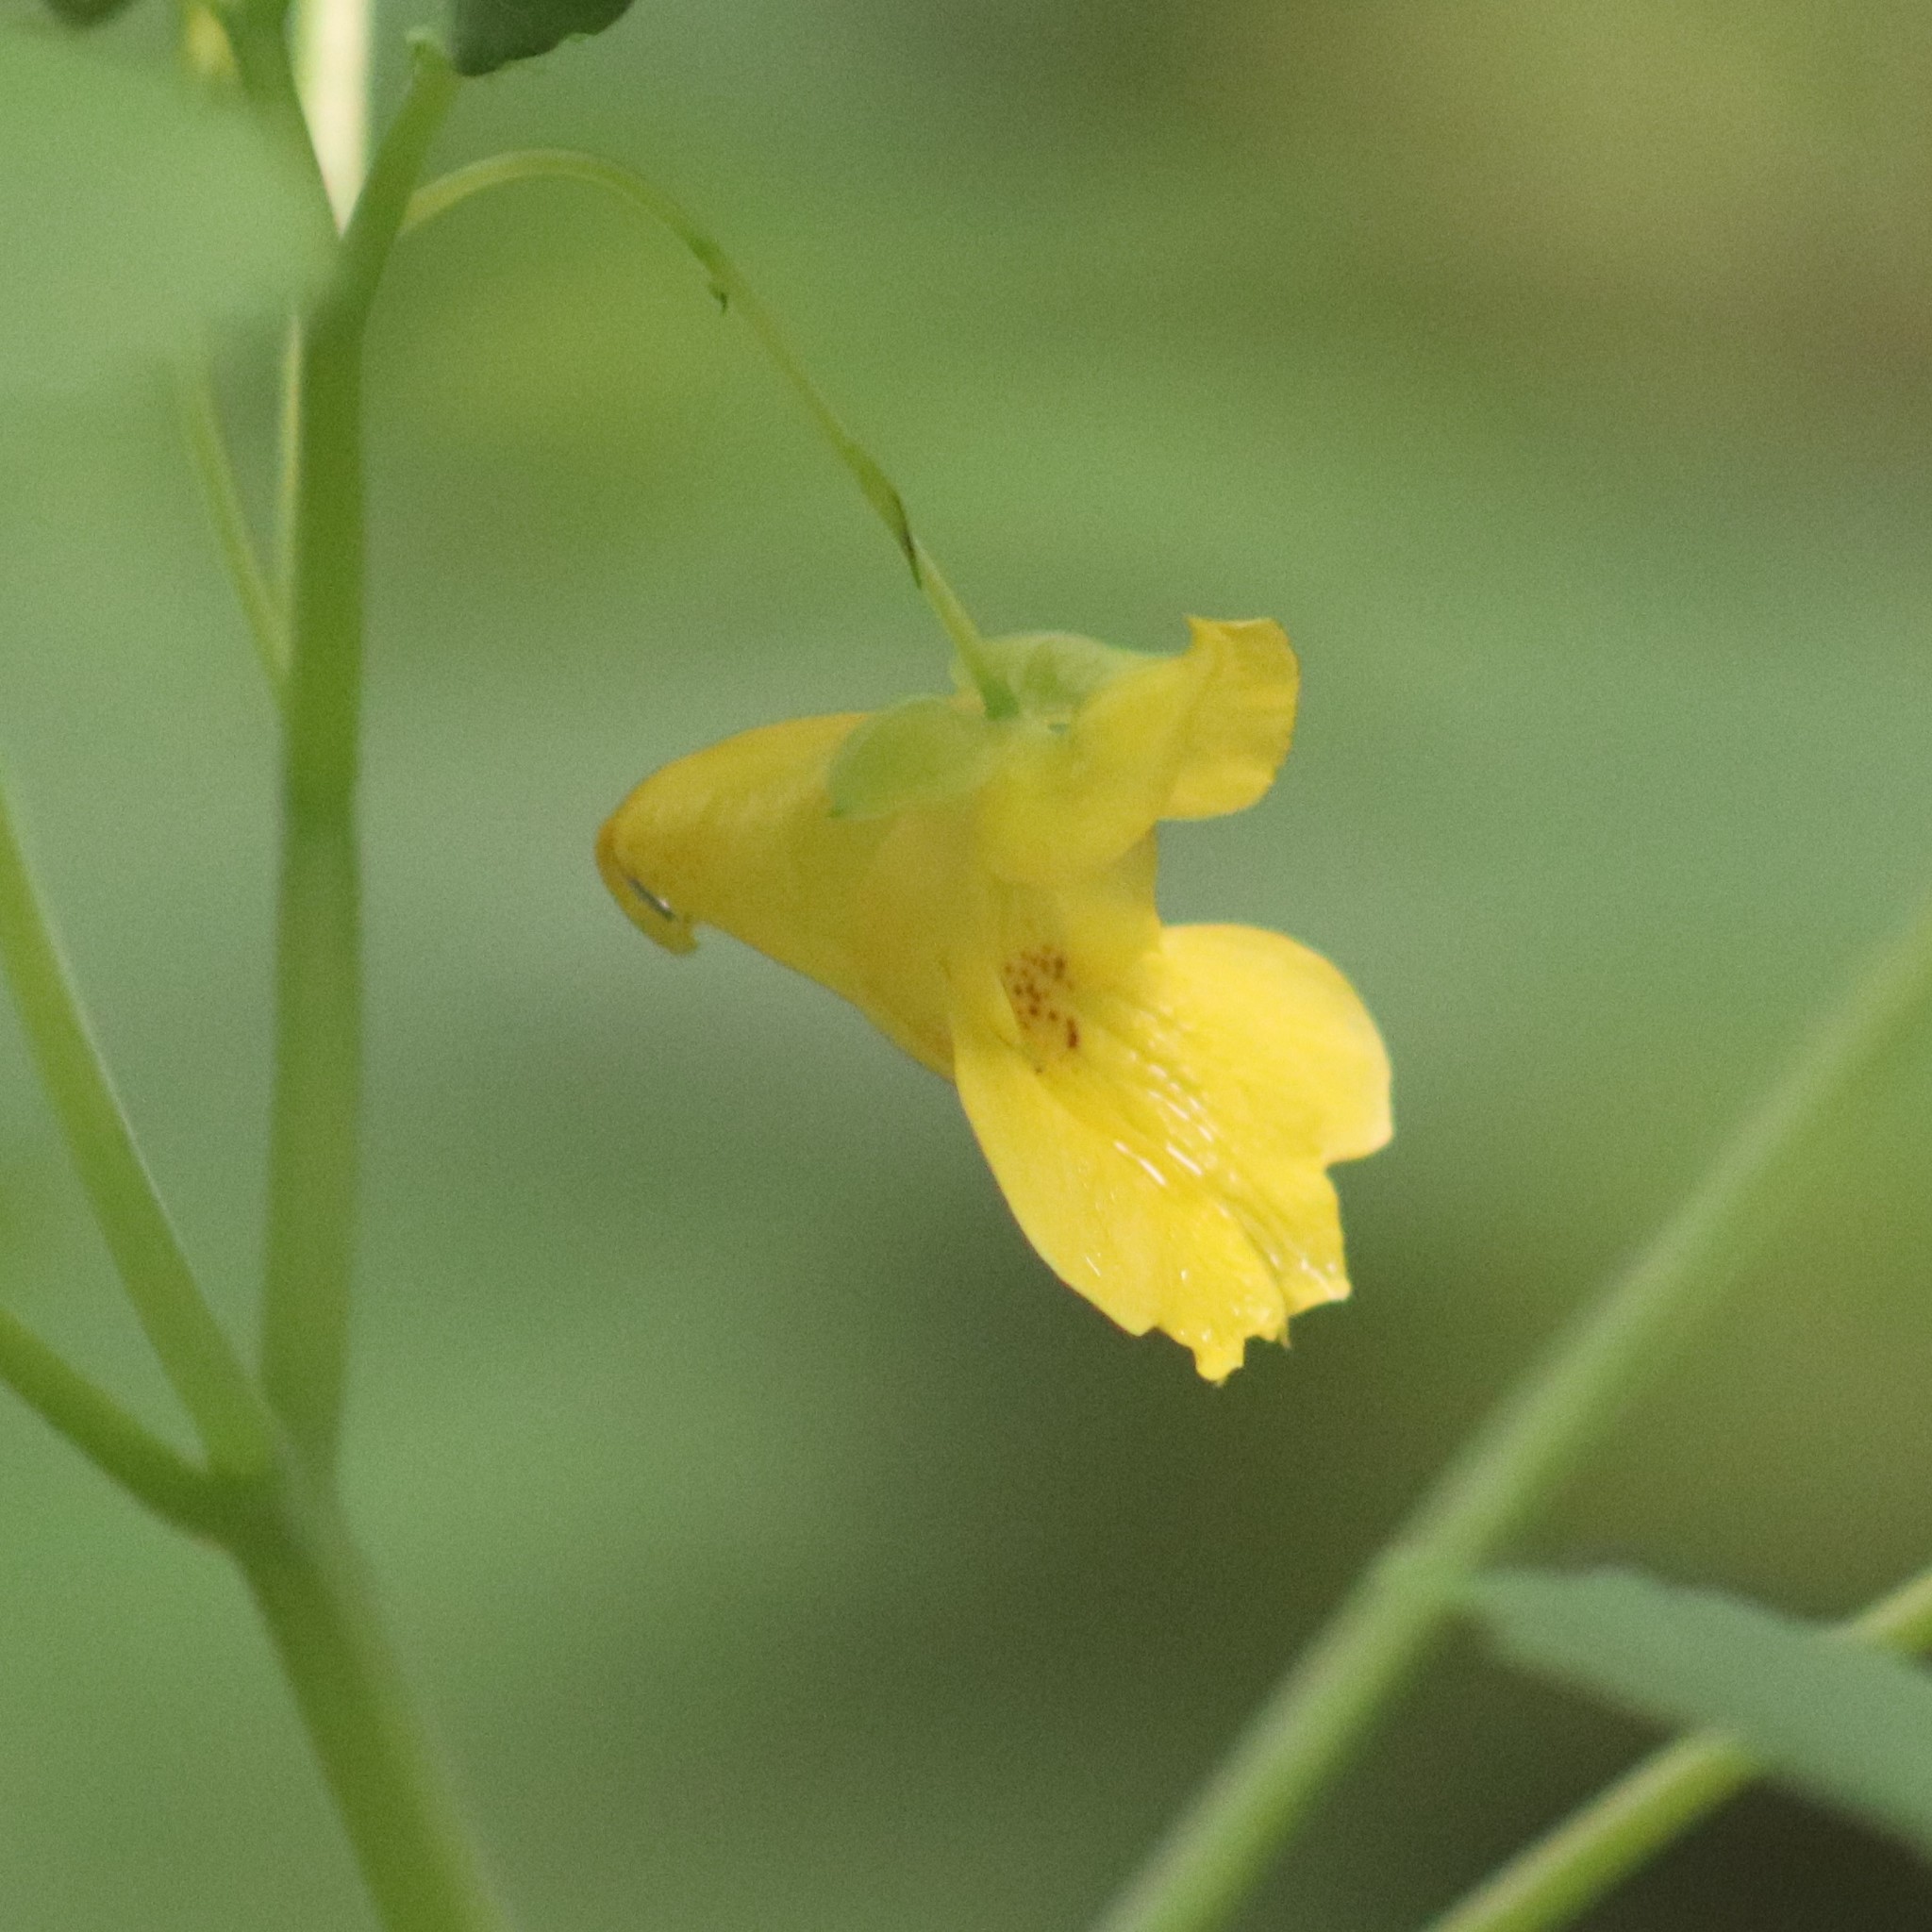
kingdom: Plantae
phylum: Tracheophyta
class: Magnoliopsida
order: Ericales
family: Balsaminaceae
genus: Impatiens
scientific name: Impatiens pallida
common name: Pale snapweed
